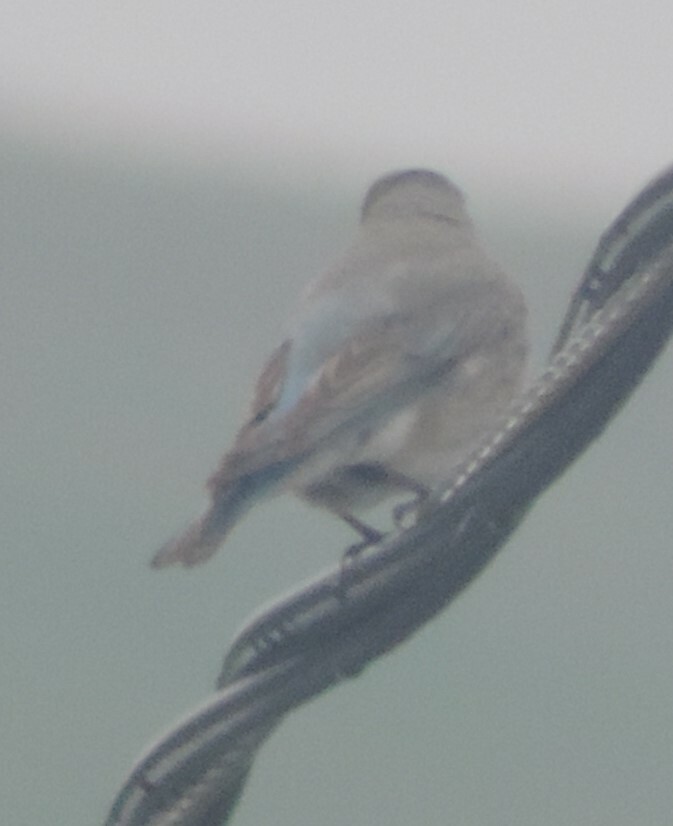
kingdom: Animalia
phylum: Chordata
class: Aves
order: Passeriformes
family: Turdidae
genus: Sialia
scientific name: Sialia currucoides
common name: Mountain bluebird
